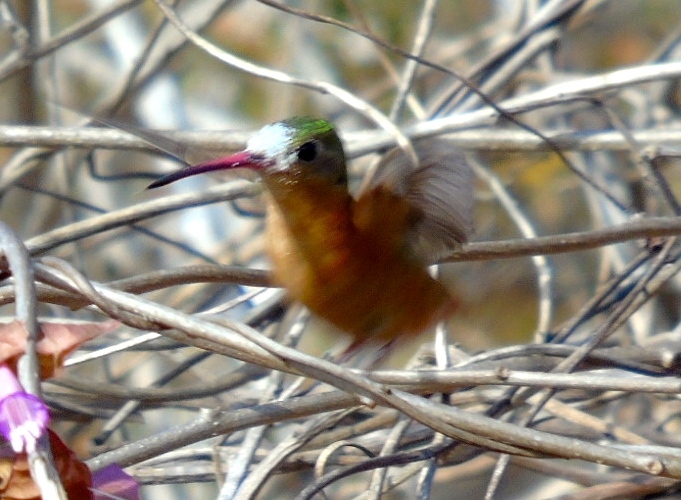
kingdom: Animalia
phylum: Chordata
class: Aves
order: Apodiformes
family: Trochilidae
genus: Amazilia
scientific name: Amazilia rutila
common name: Cinnamon hummingbird
